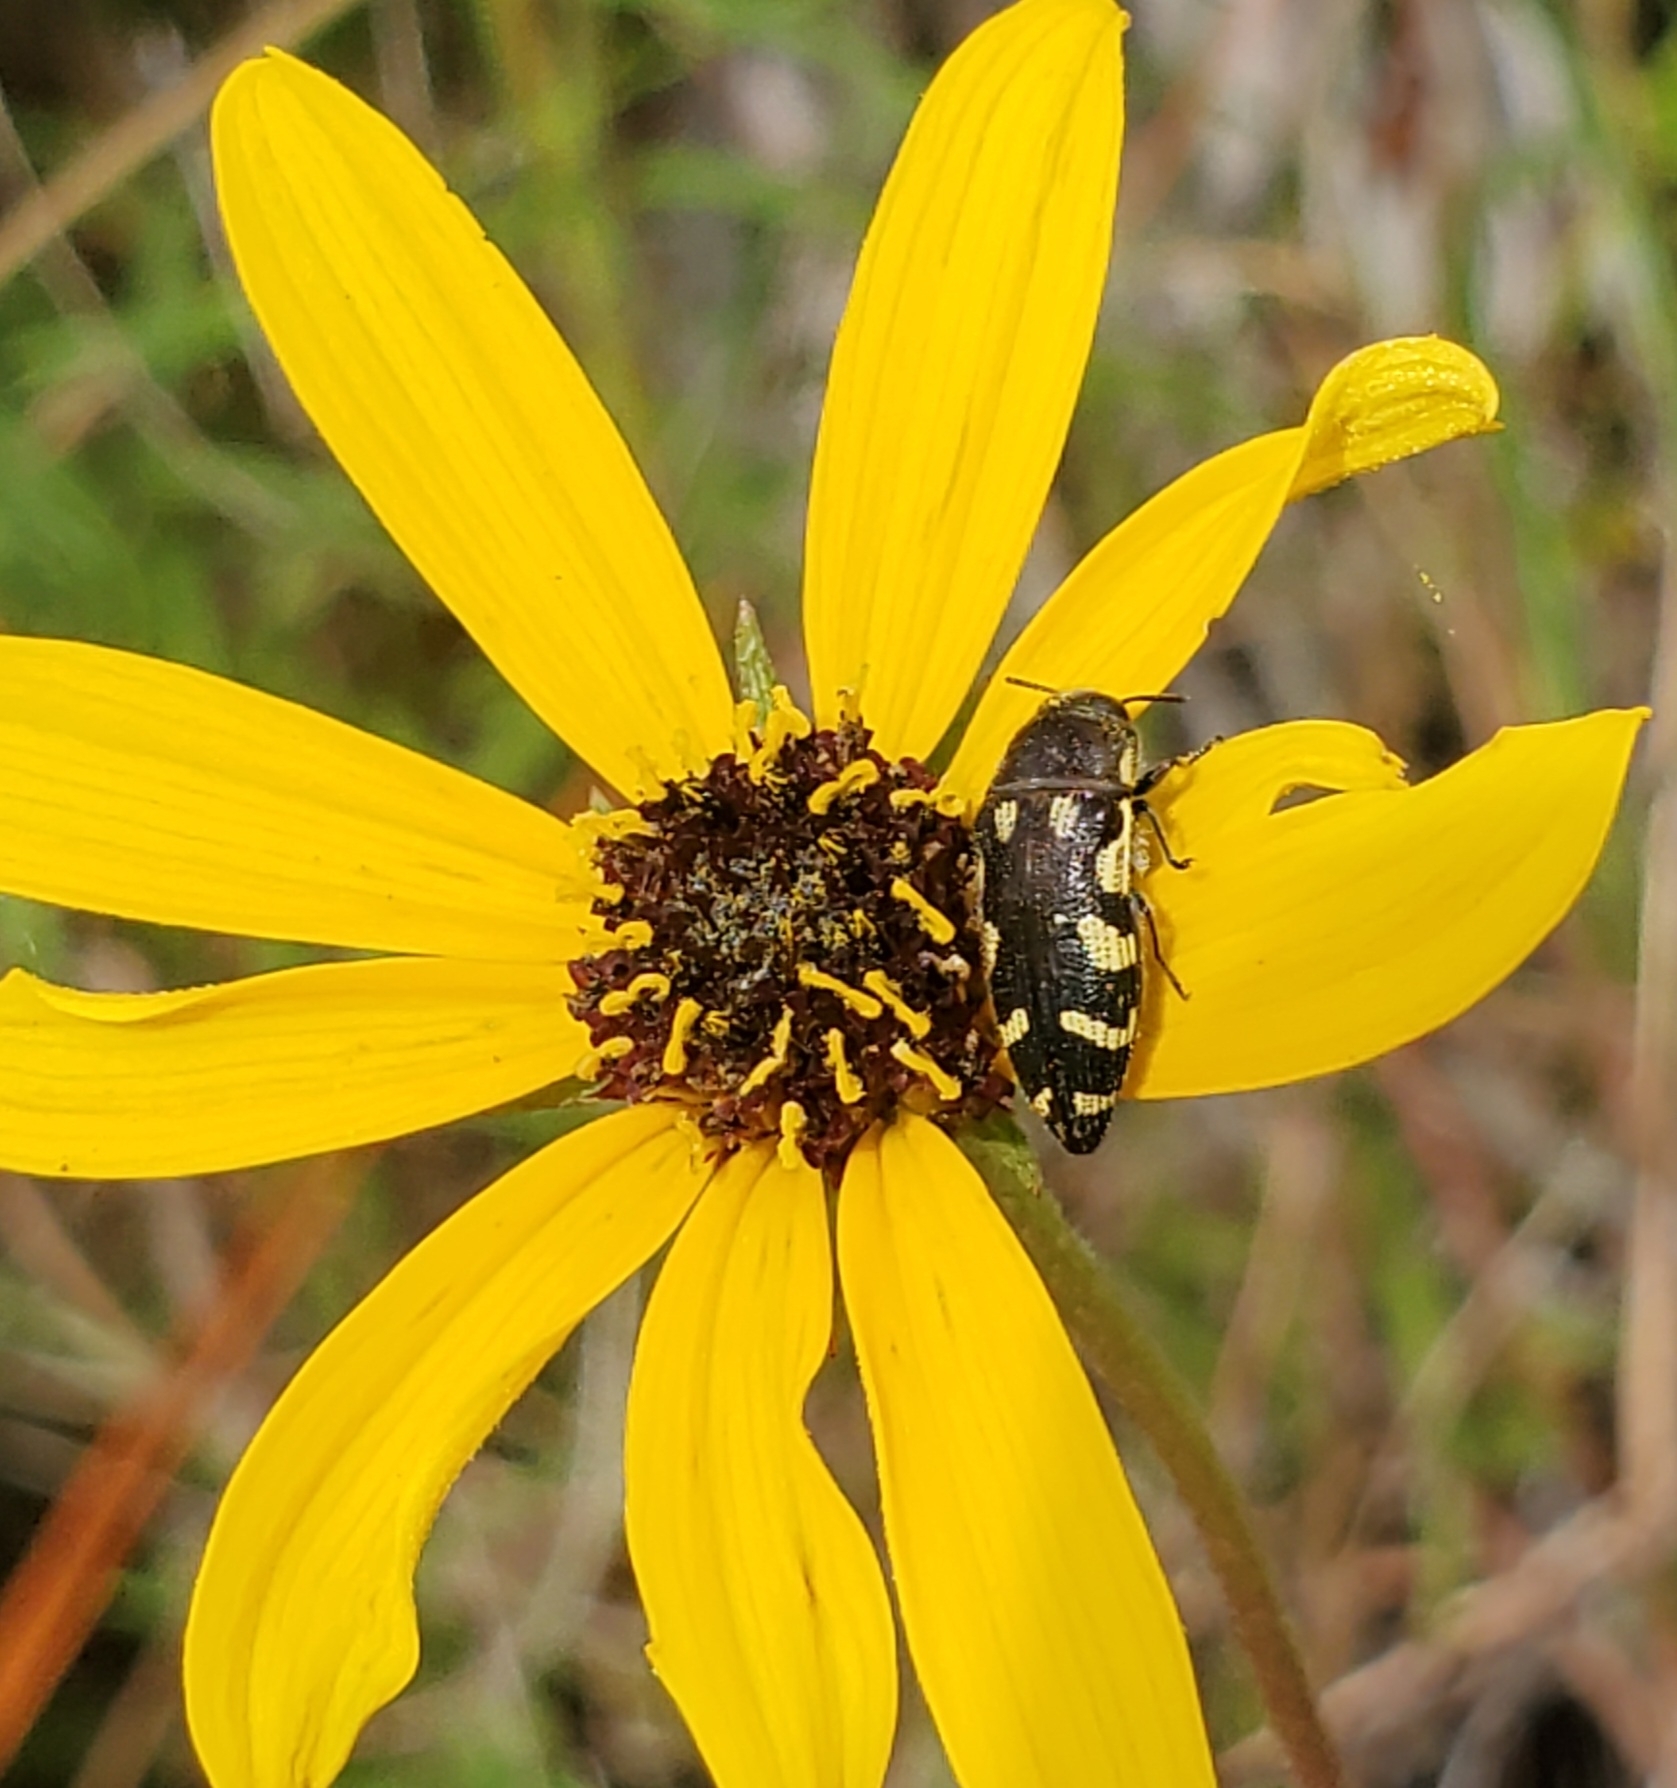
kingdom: Animalia
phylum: Arthropoda
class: Insecta
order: Coleoptera
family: Buprestidae
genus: Acmaeodera
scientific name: Acmaeodera pulchella
